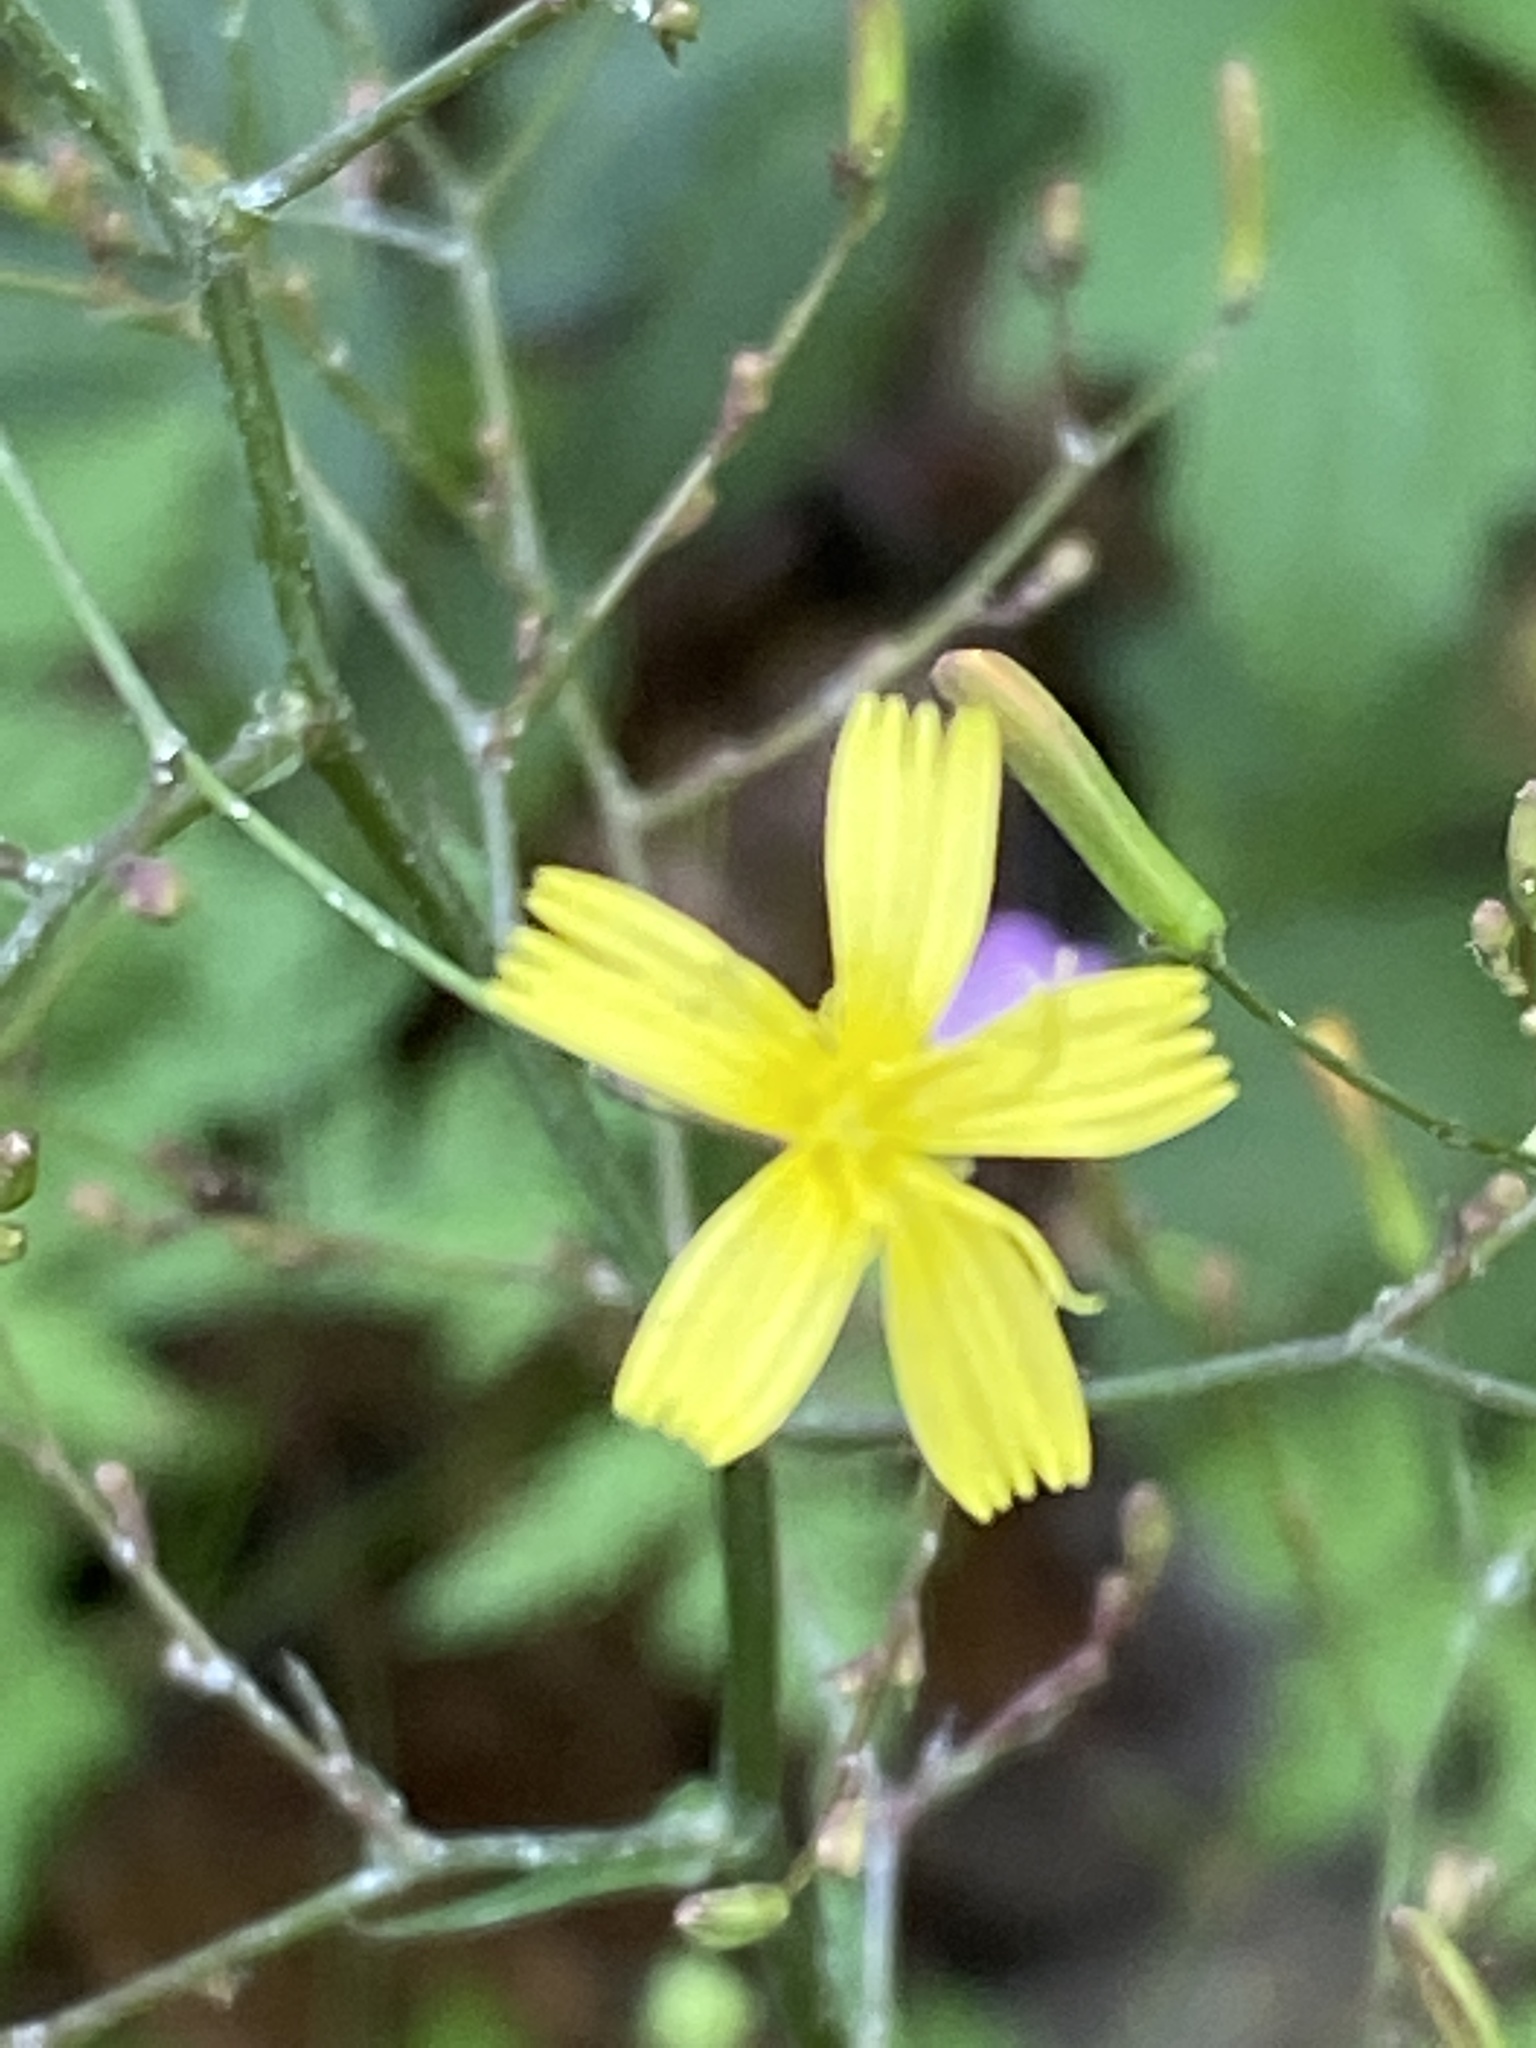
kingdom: Plantae
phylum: Tracheophyta
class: Magnoliopsida
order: Asterales
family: Asteraceae
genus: Mycelis
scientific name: Mycelis muralis
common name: Wall lettuce
